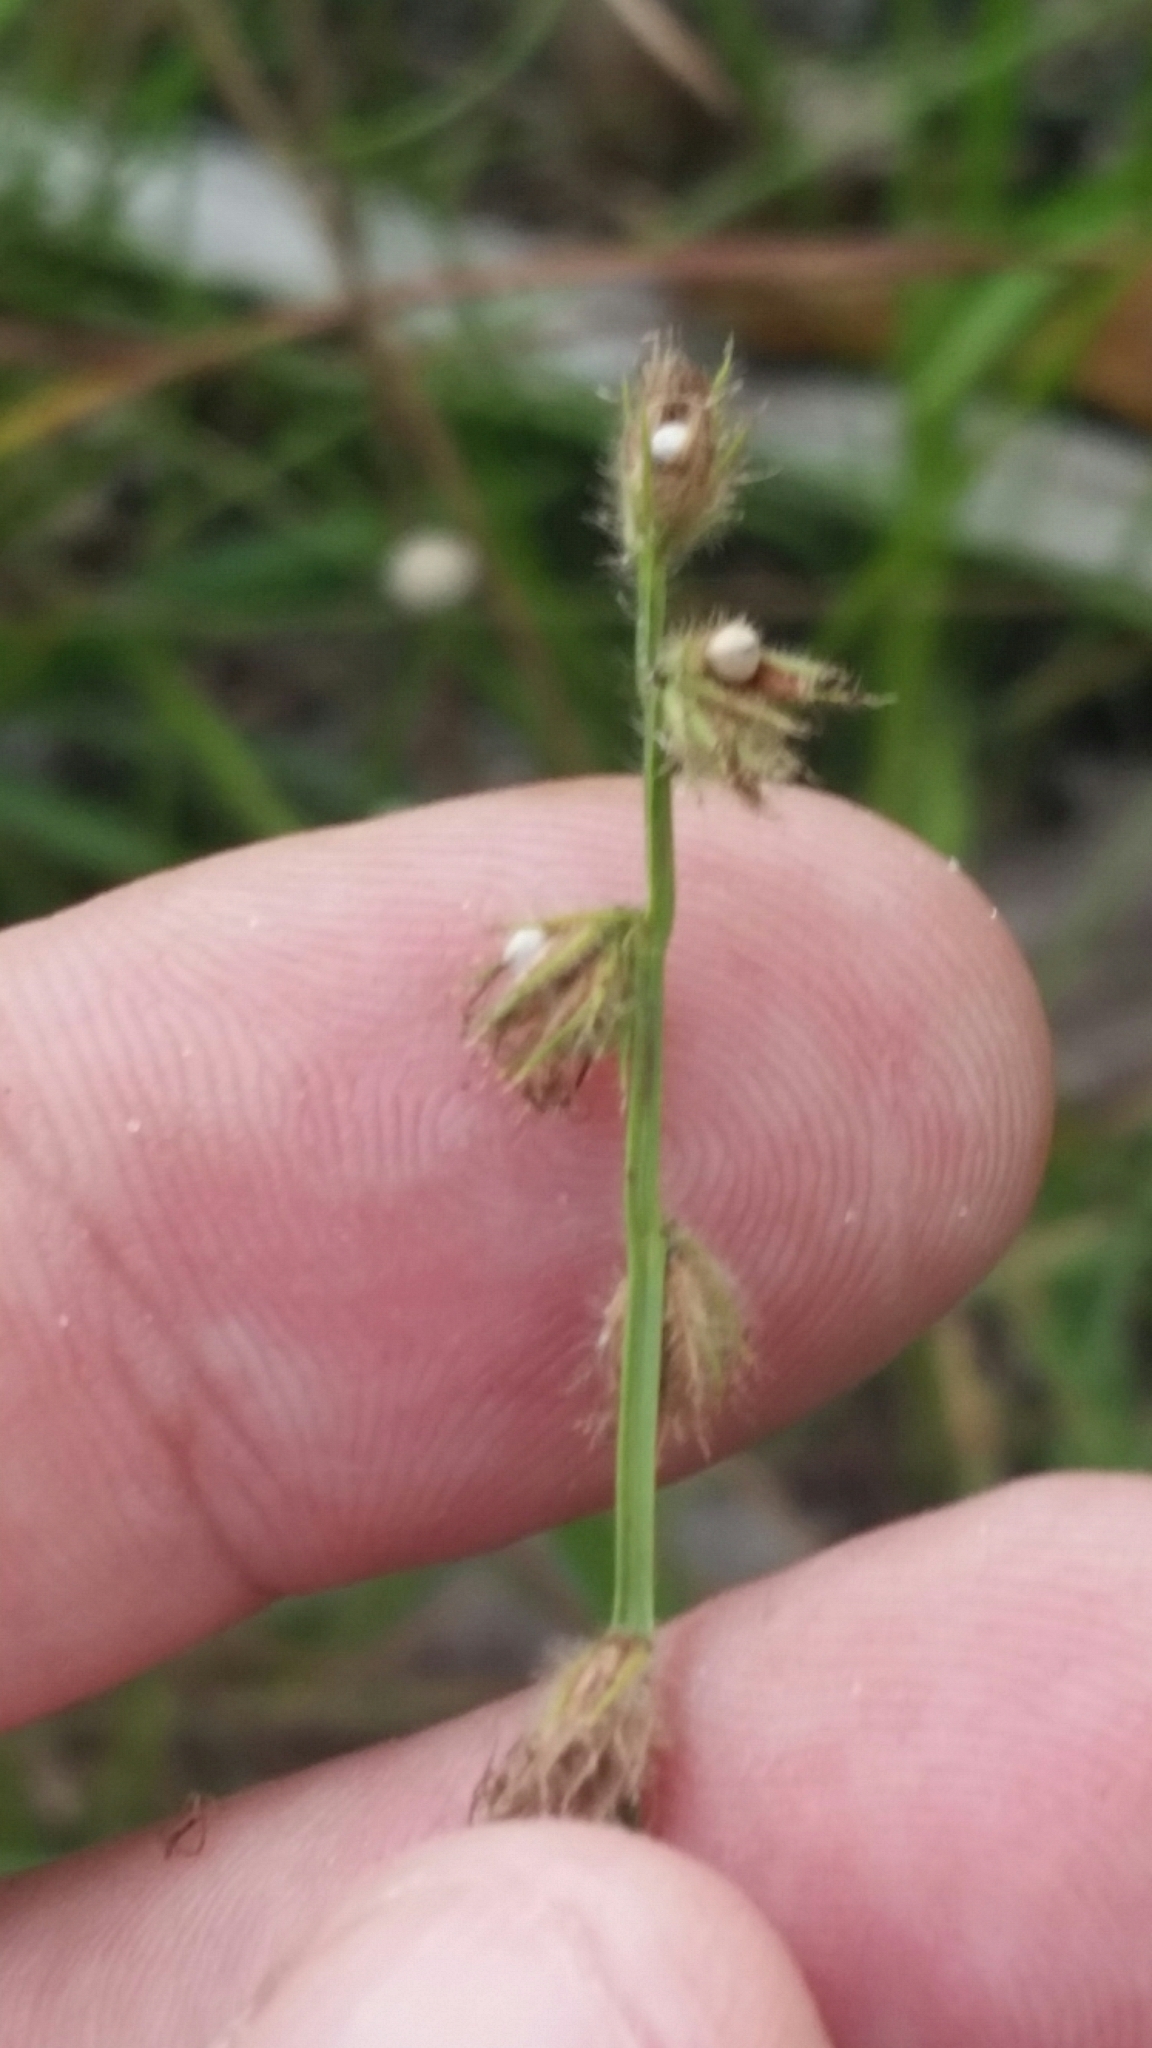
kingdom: Plantae
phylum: Tracheophyta
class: Liliopsida
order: Poales
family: Cyperaceae
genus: Scleria
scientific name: Scleria distans
